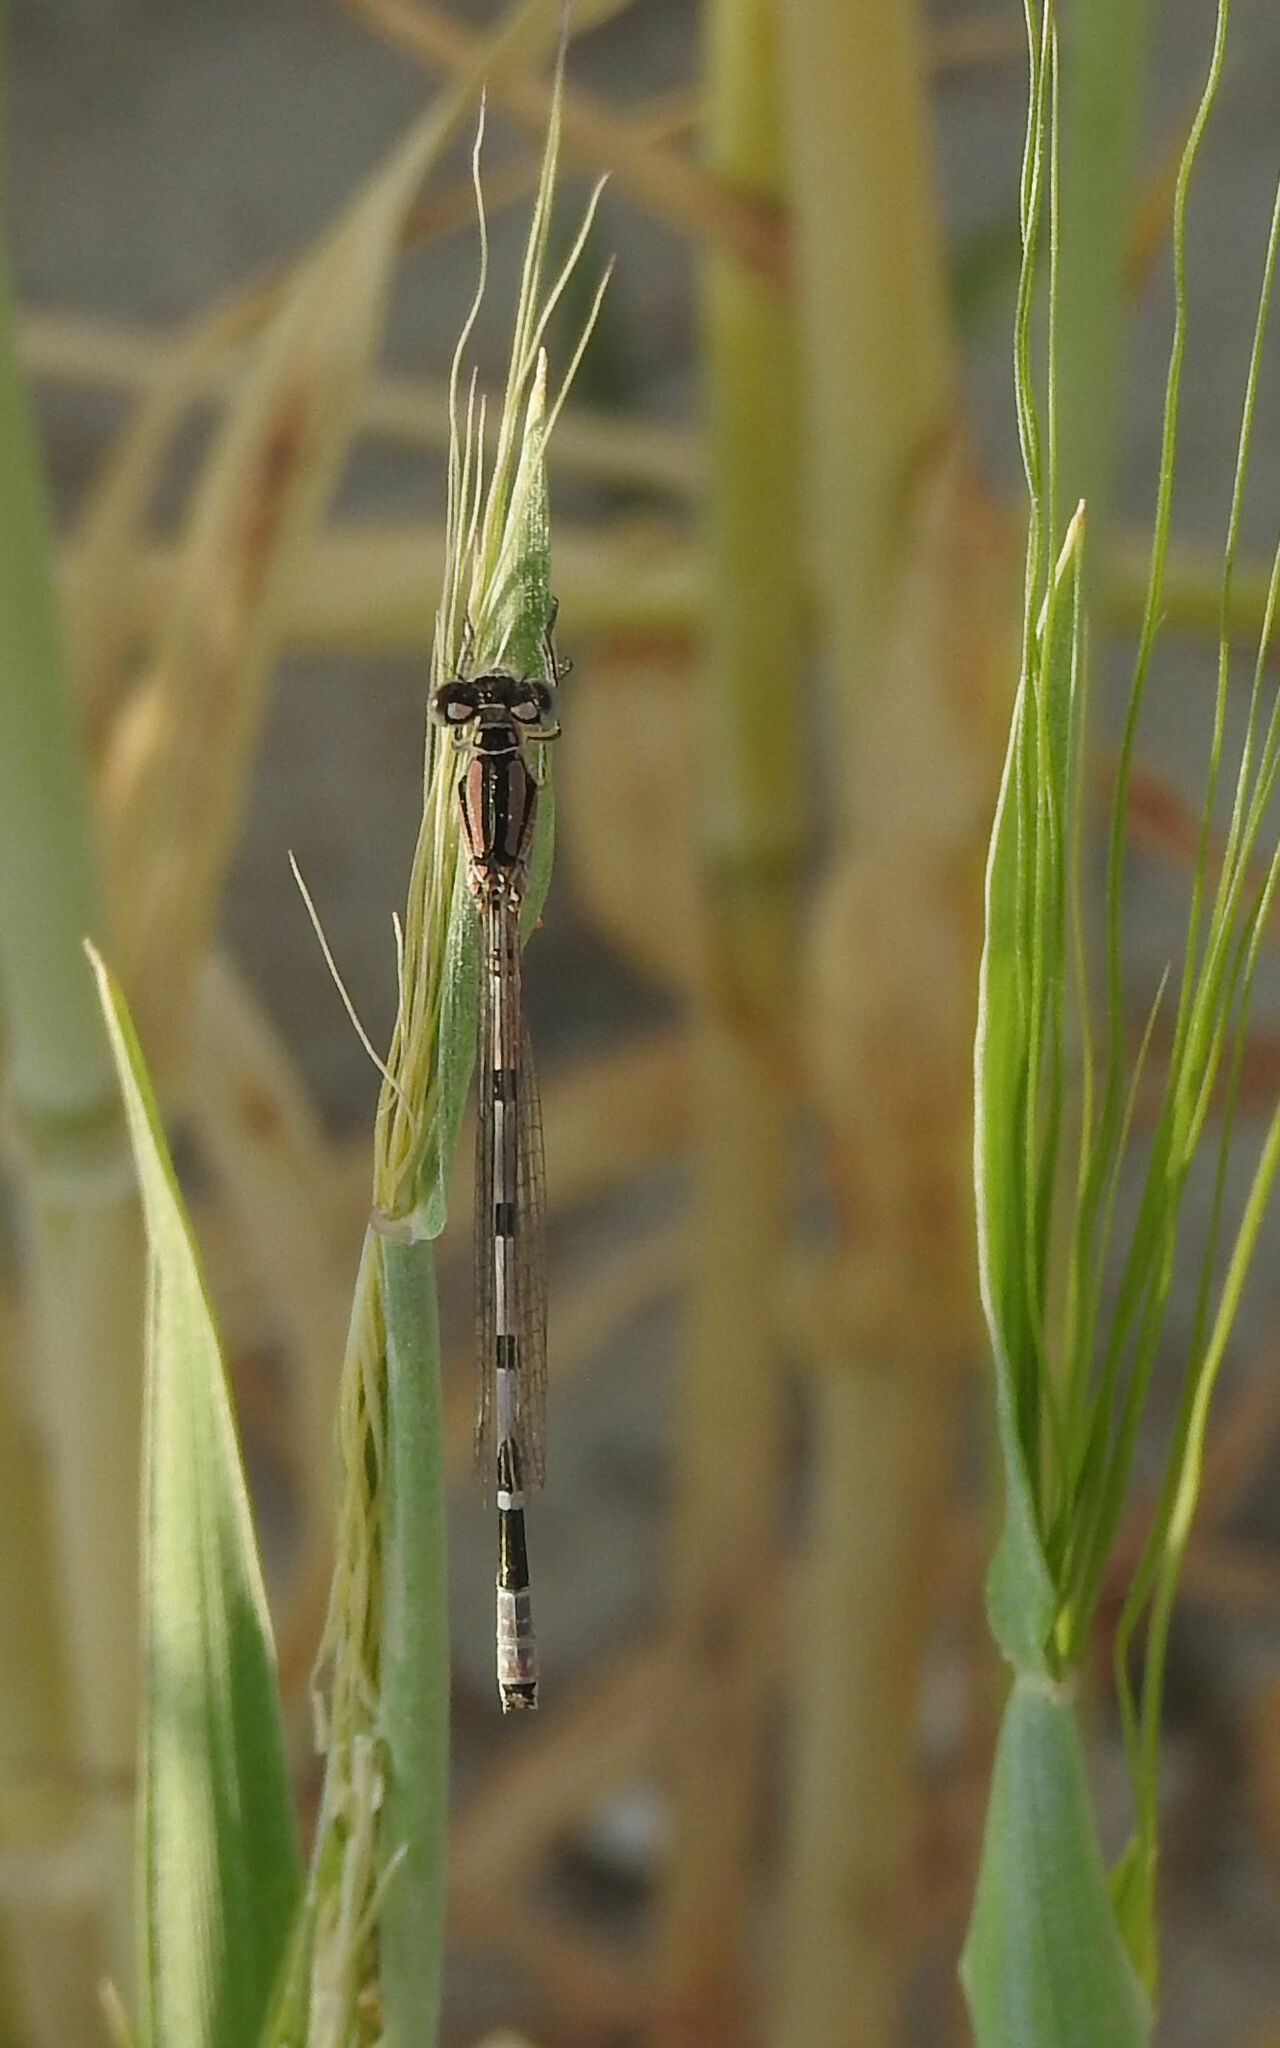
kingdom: Animalia
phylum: Arthropoda
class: Insecta
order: Odonata
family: Coenagrionidae
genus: Enallagma
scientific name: Enallagma cyathigerum
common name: Common blue damselfly
